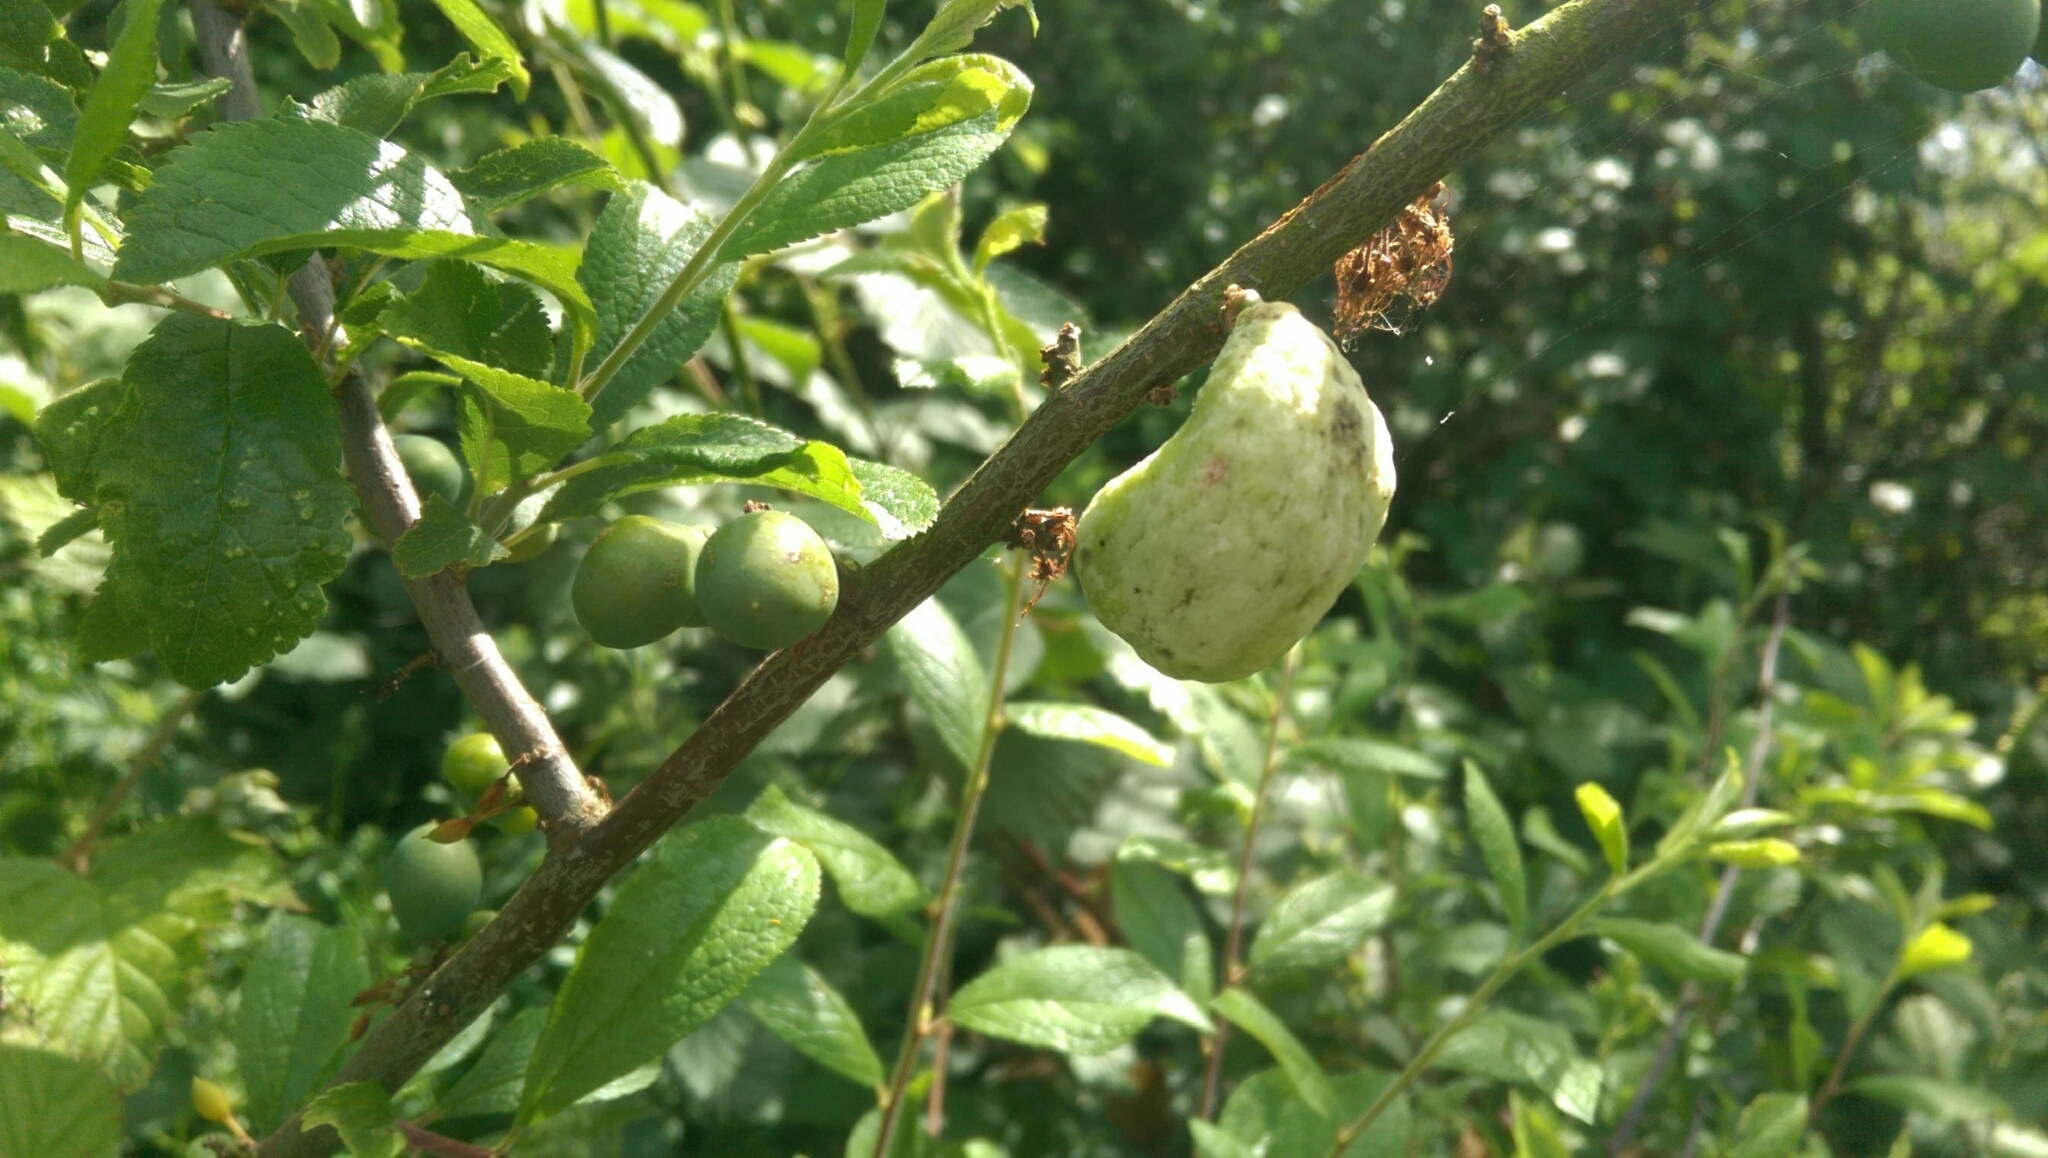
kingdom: Fungi
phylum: Ascomycota
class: Taphrinomycetes
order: Taphrinales
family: Taphrinaceae
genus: Taphrina
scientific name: Taphrina pruni
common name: Pocket plum
